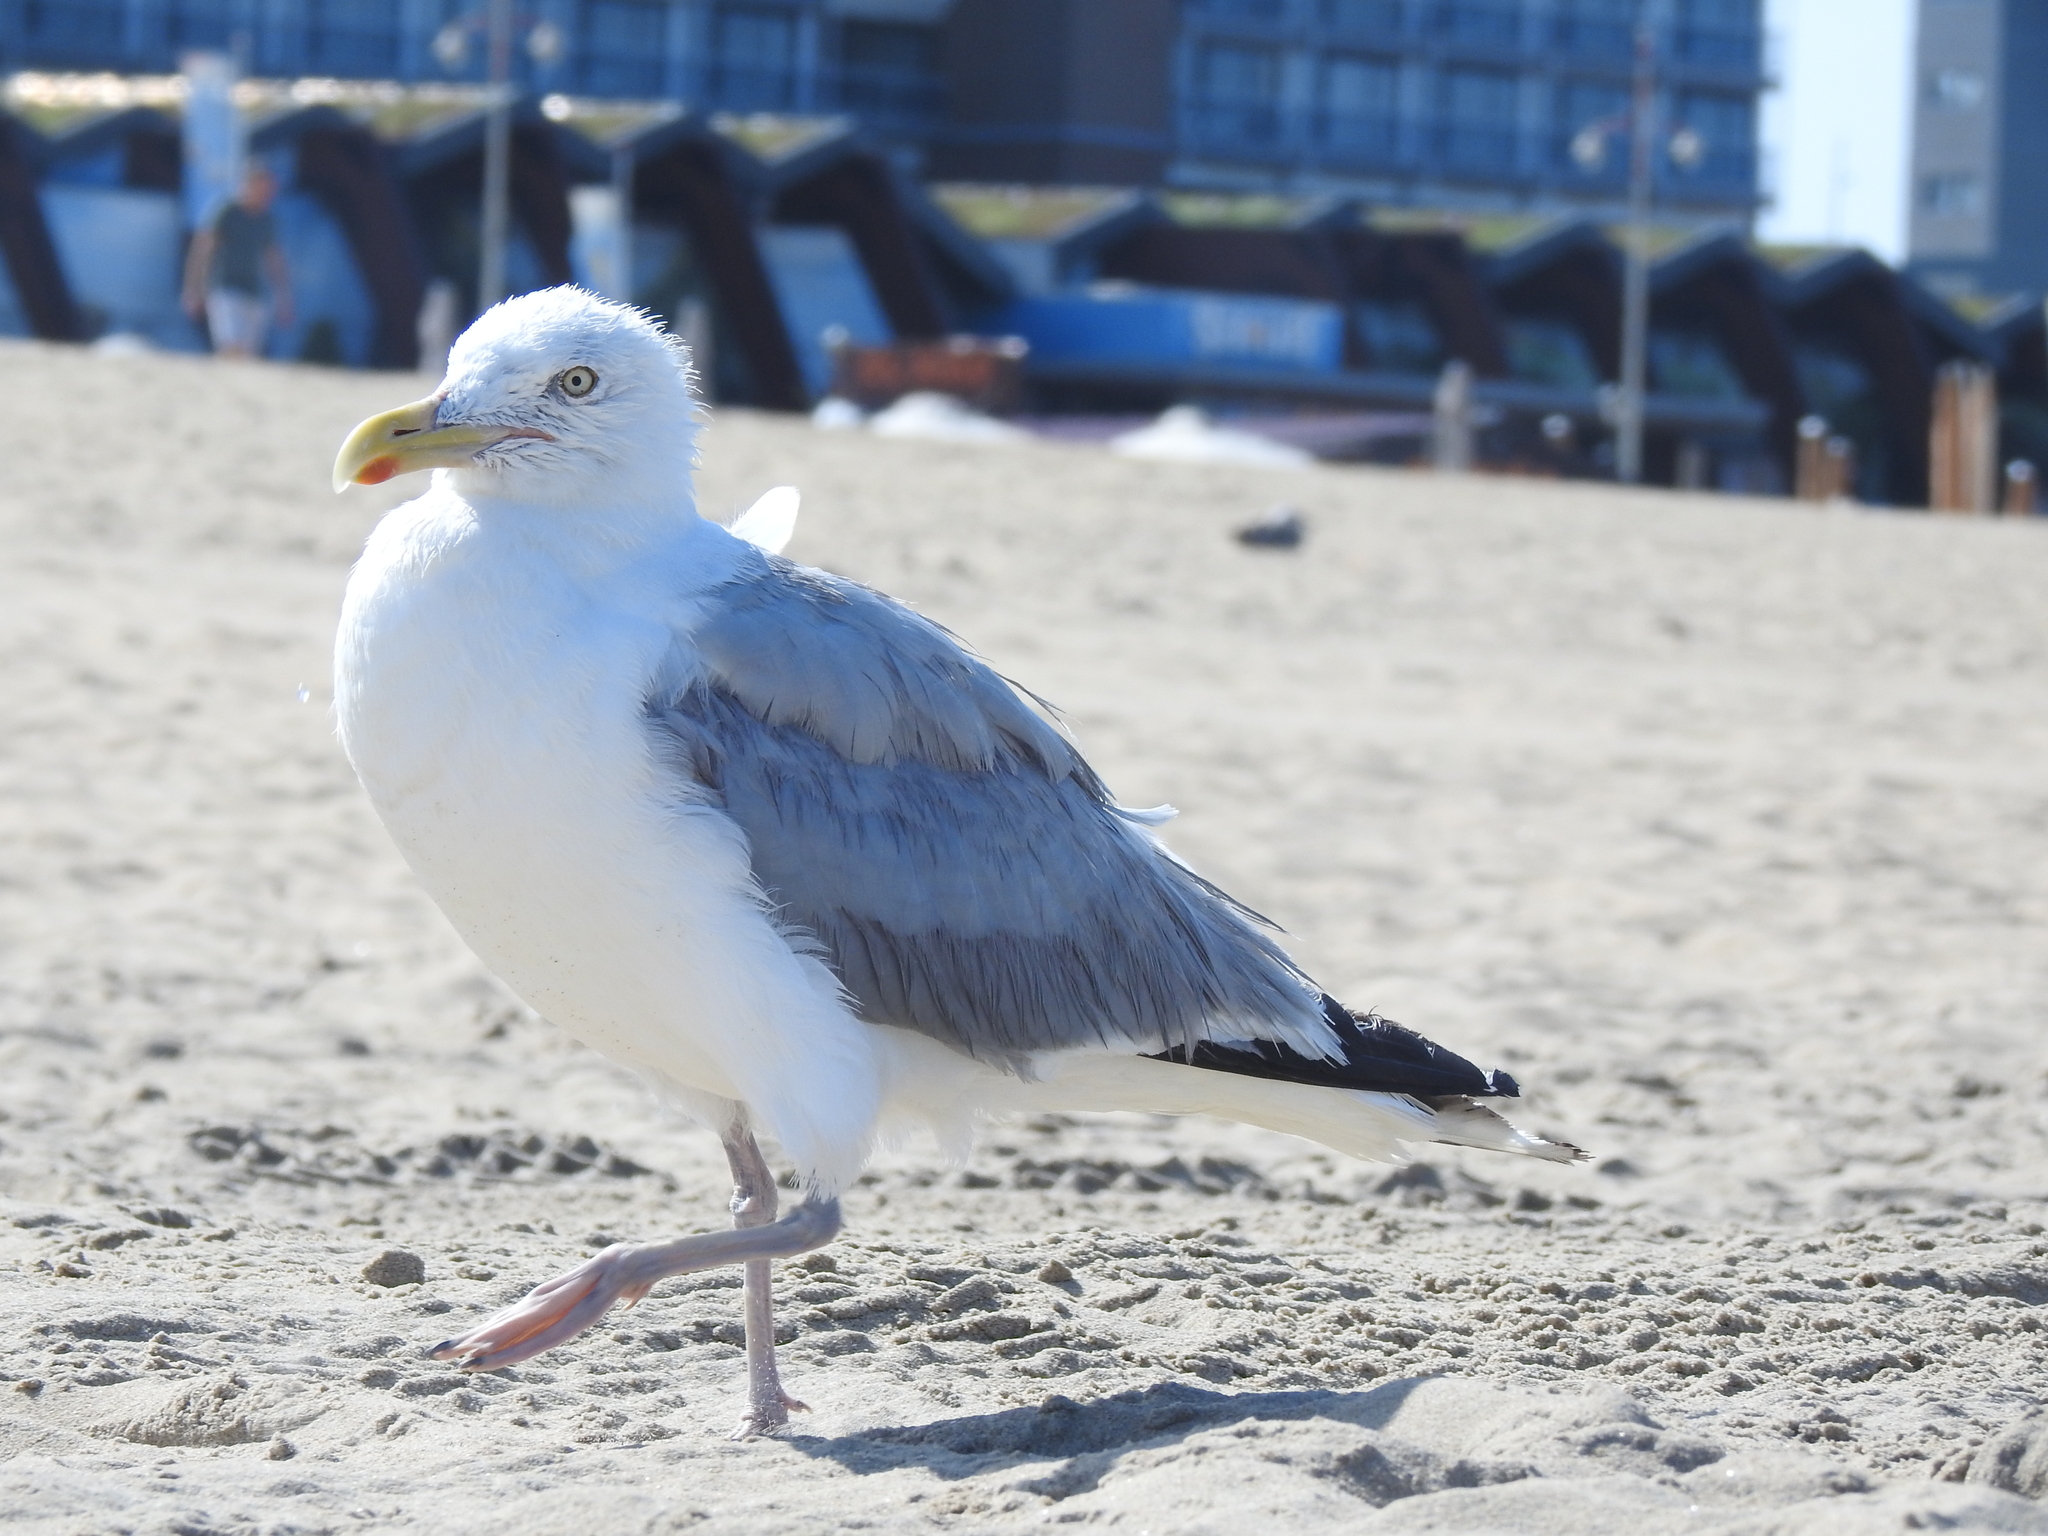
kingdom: Animalia
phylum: Chordata
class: Aves
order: Charadriiformes
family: Laridae
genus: Larus
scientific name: Larus argentatus
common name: Herring gull
